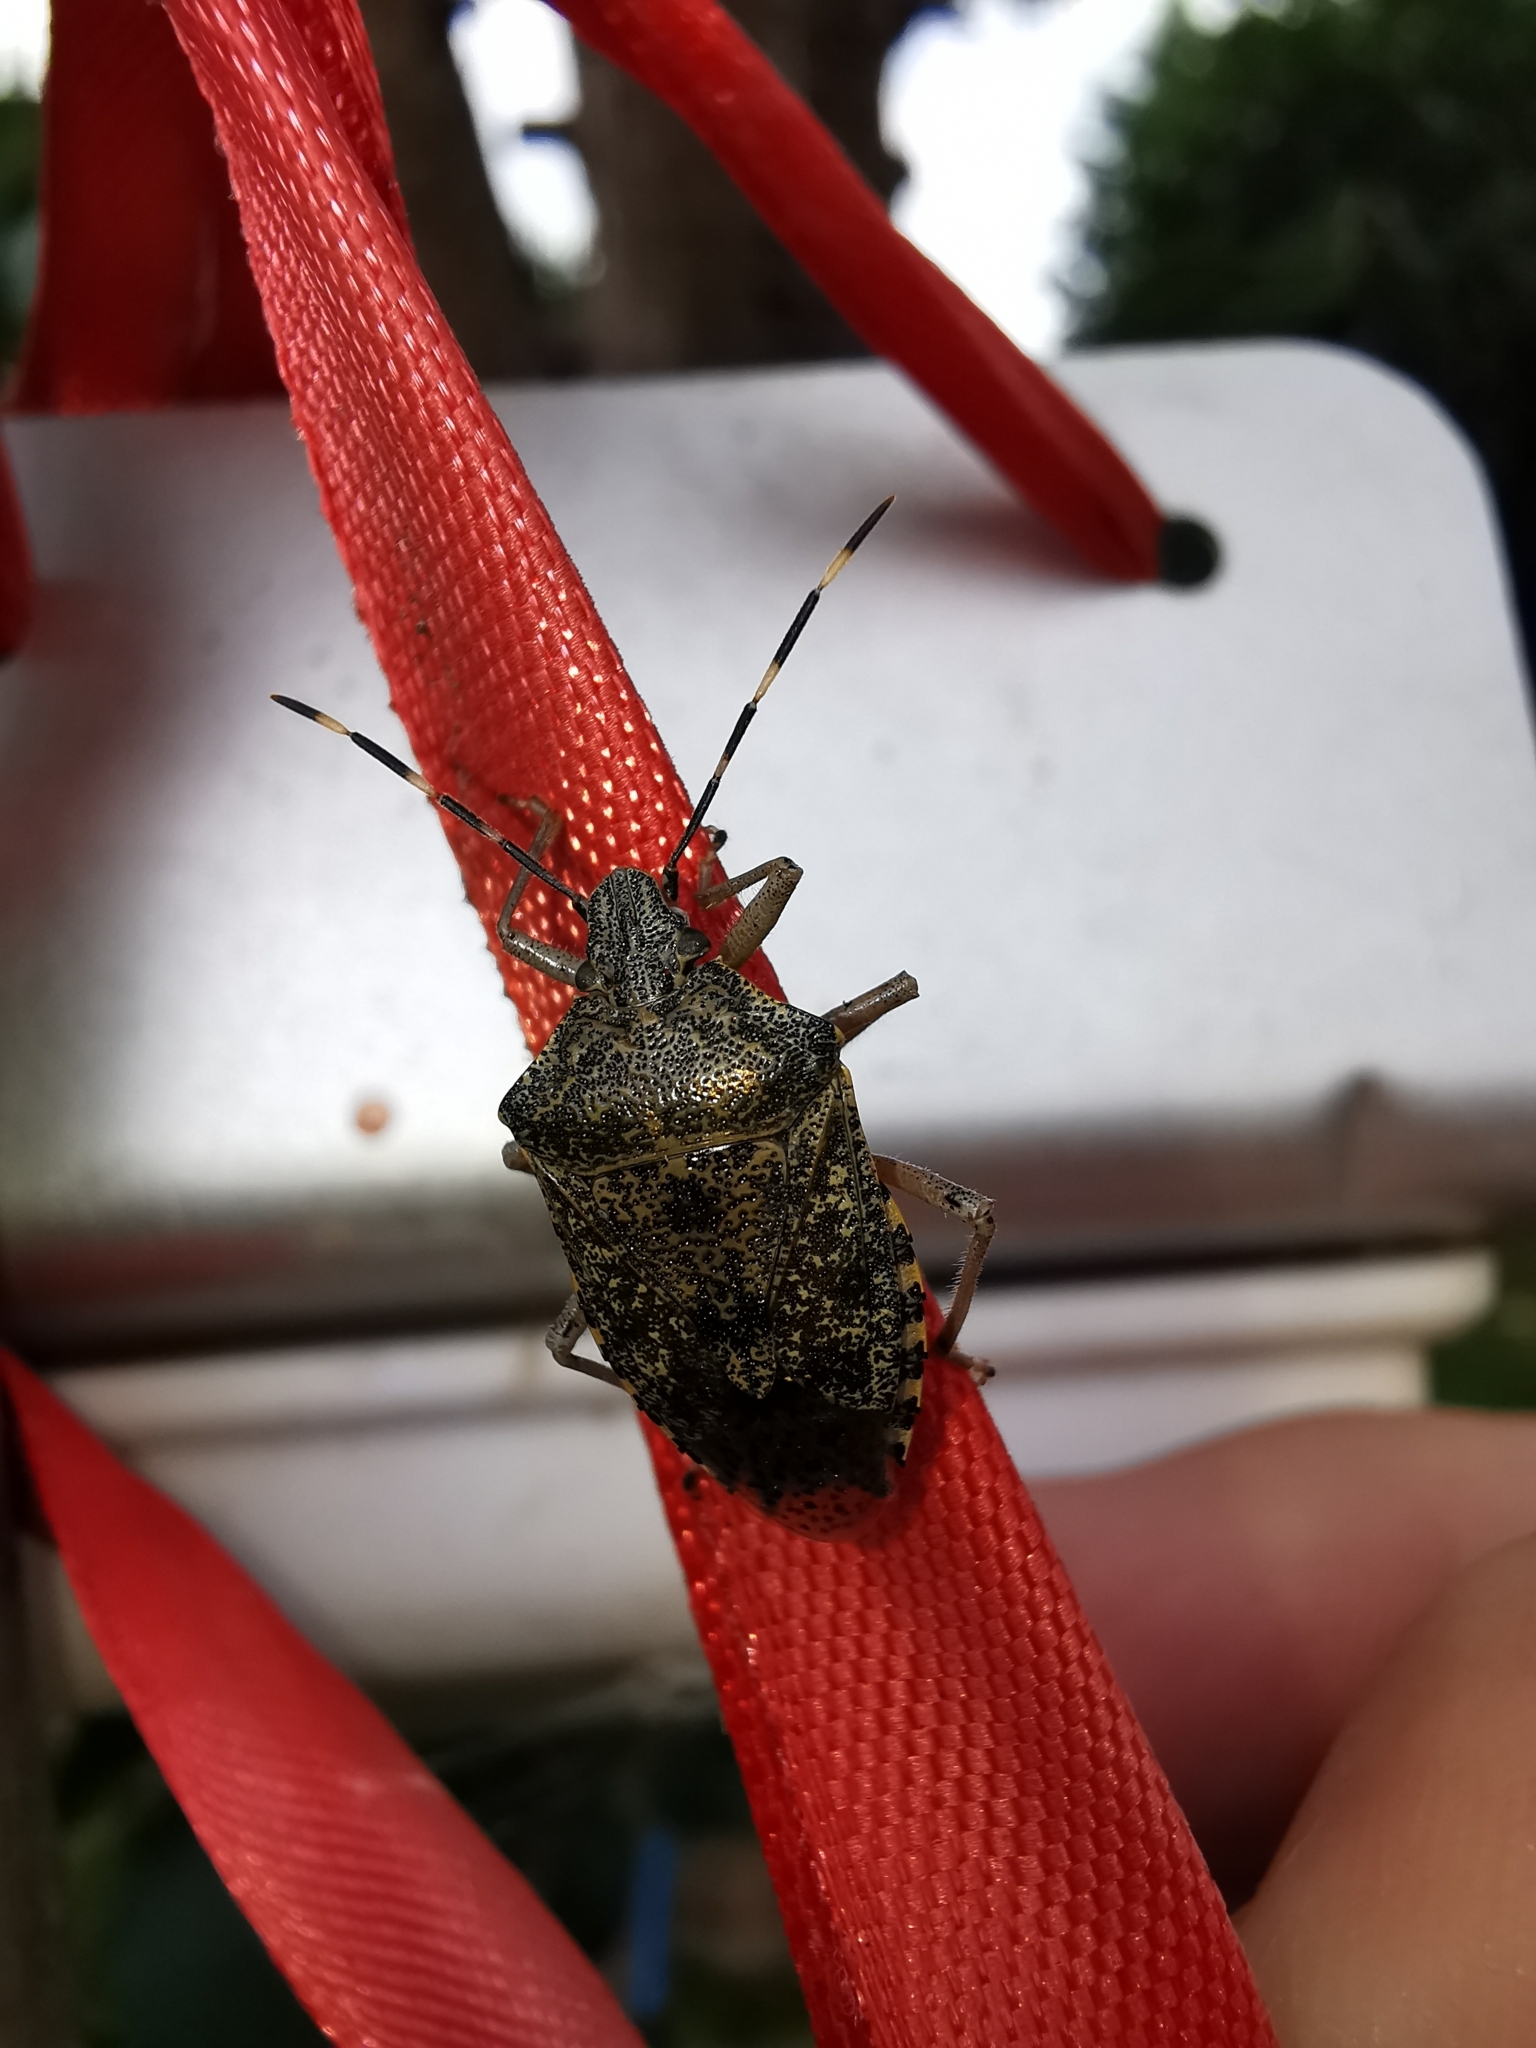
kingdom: Animalia
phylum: Arthropoda
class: Insecta
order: Hemiptera
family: Pentatomidae
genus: Rhaphigaster
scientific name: Rhaphigaster nebulosa
